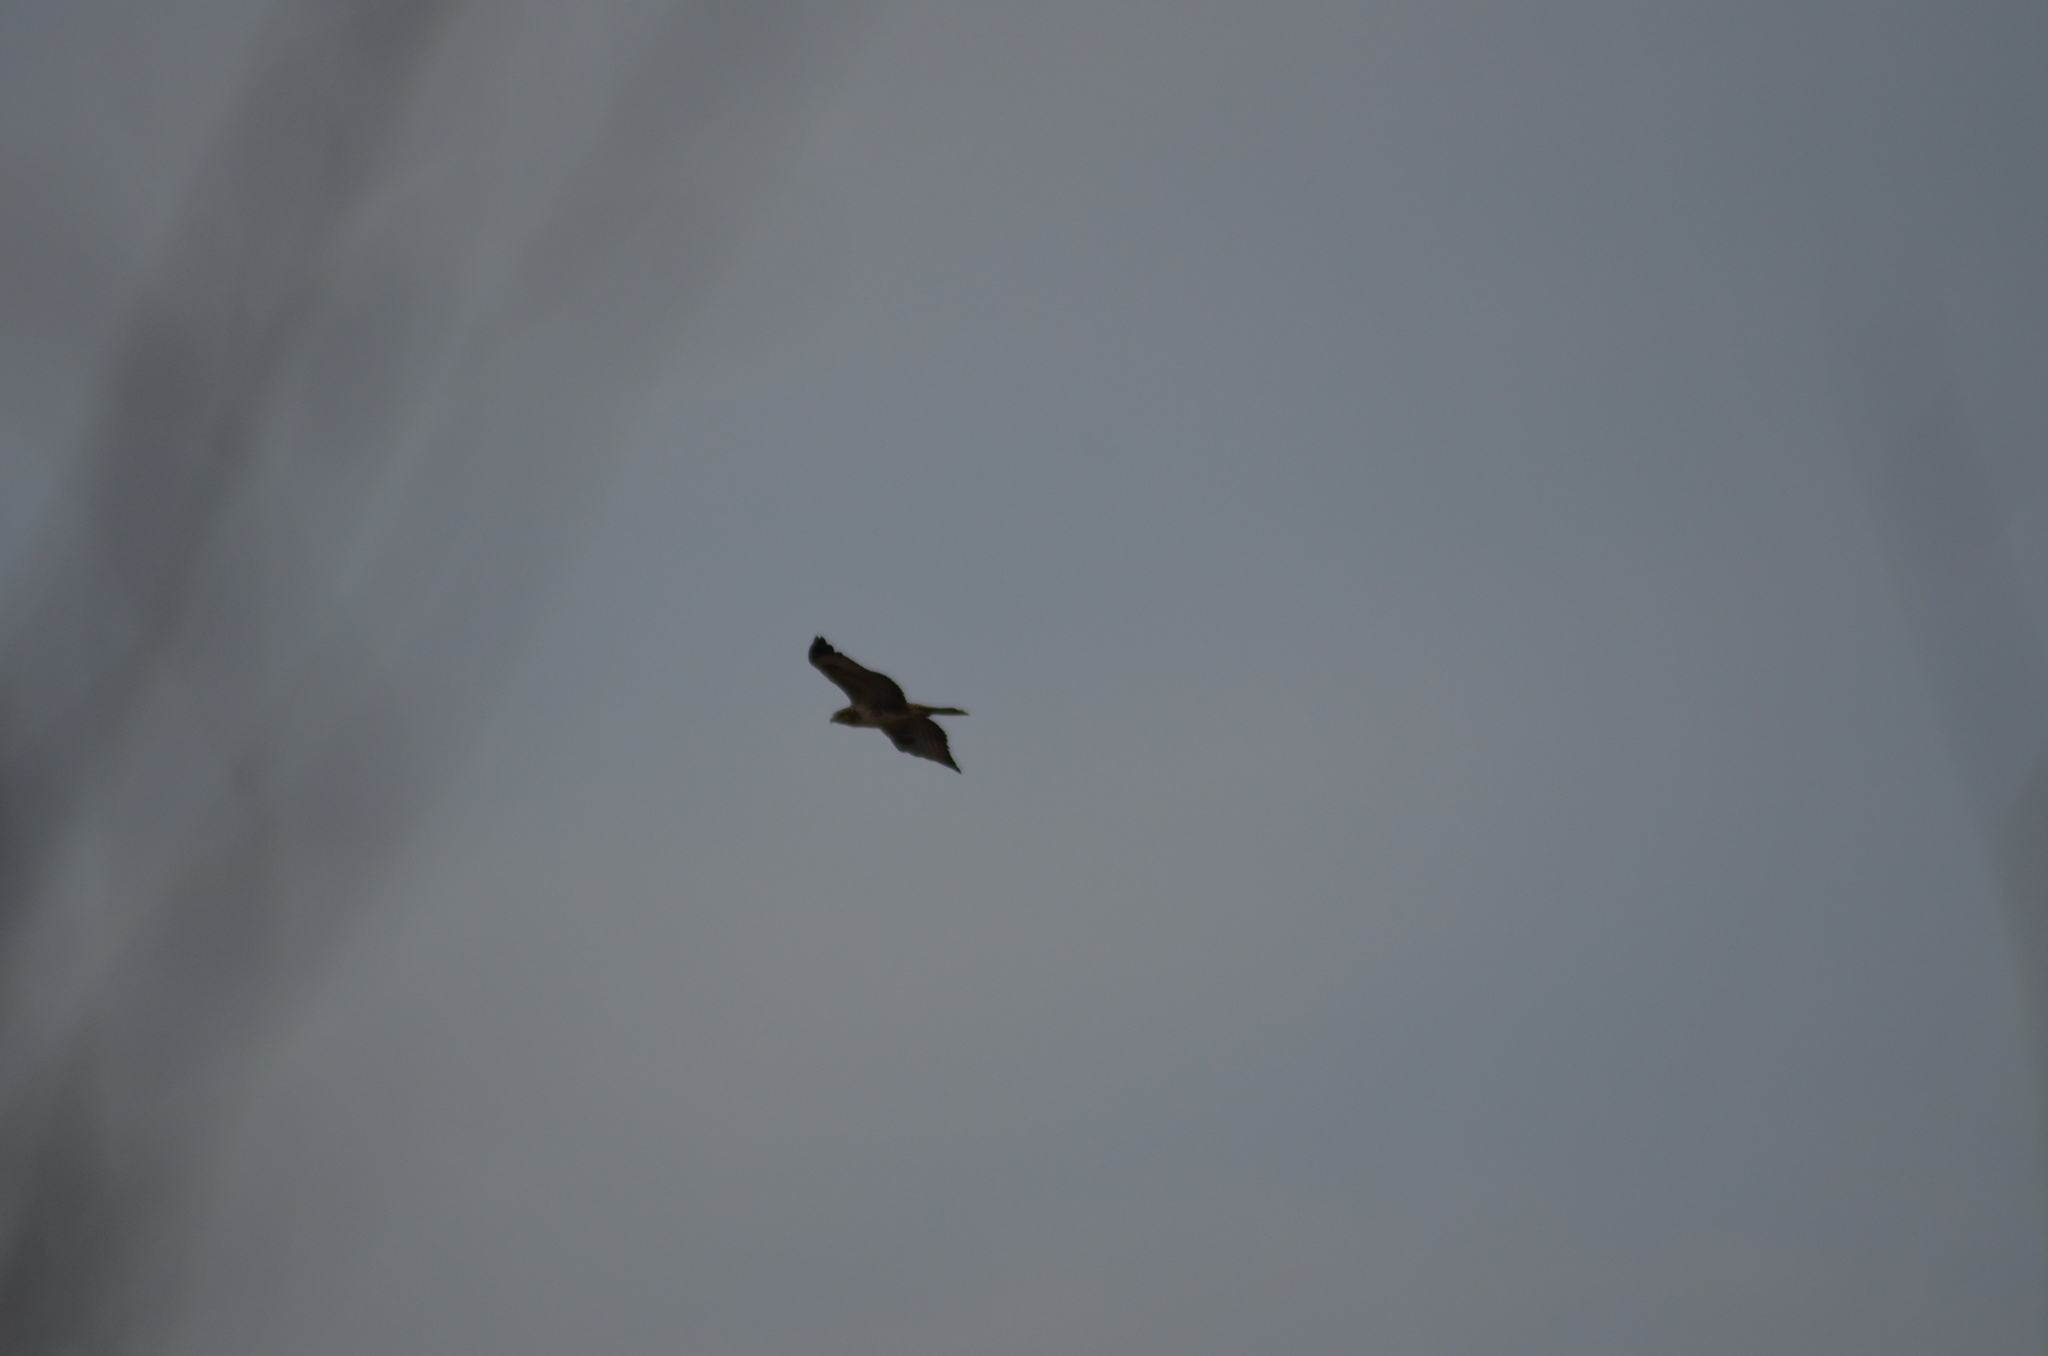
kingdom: Animalia
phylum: Chordata
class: Aves
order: Accipitriformes
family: Accipitridae
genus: Buteo
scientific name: Buteo buteo
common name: Common buzzard
